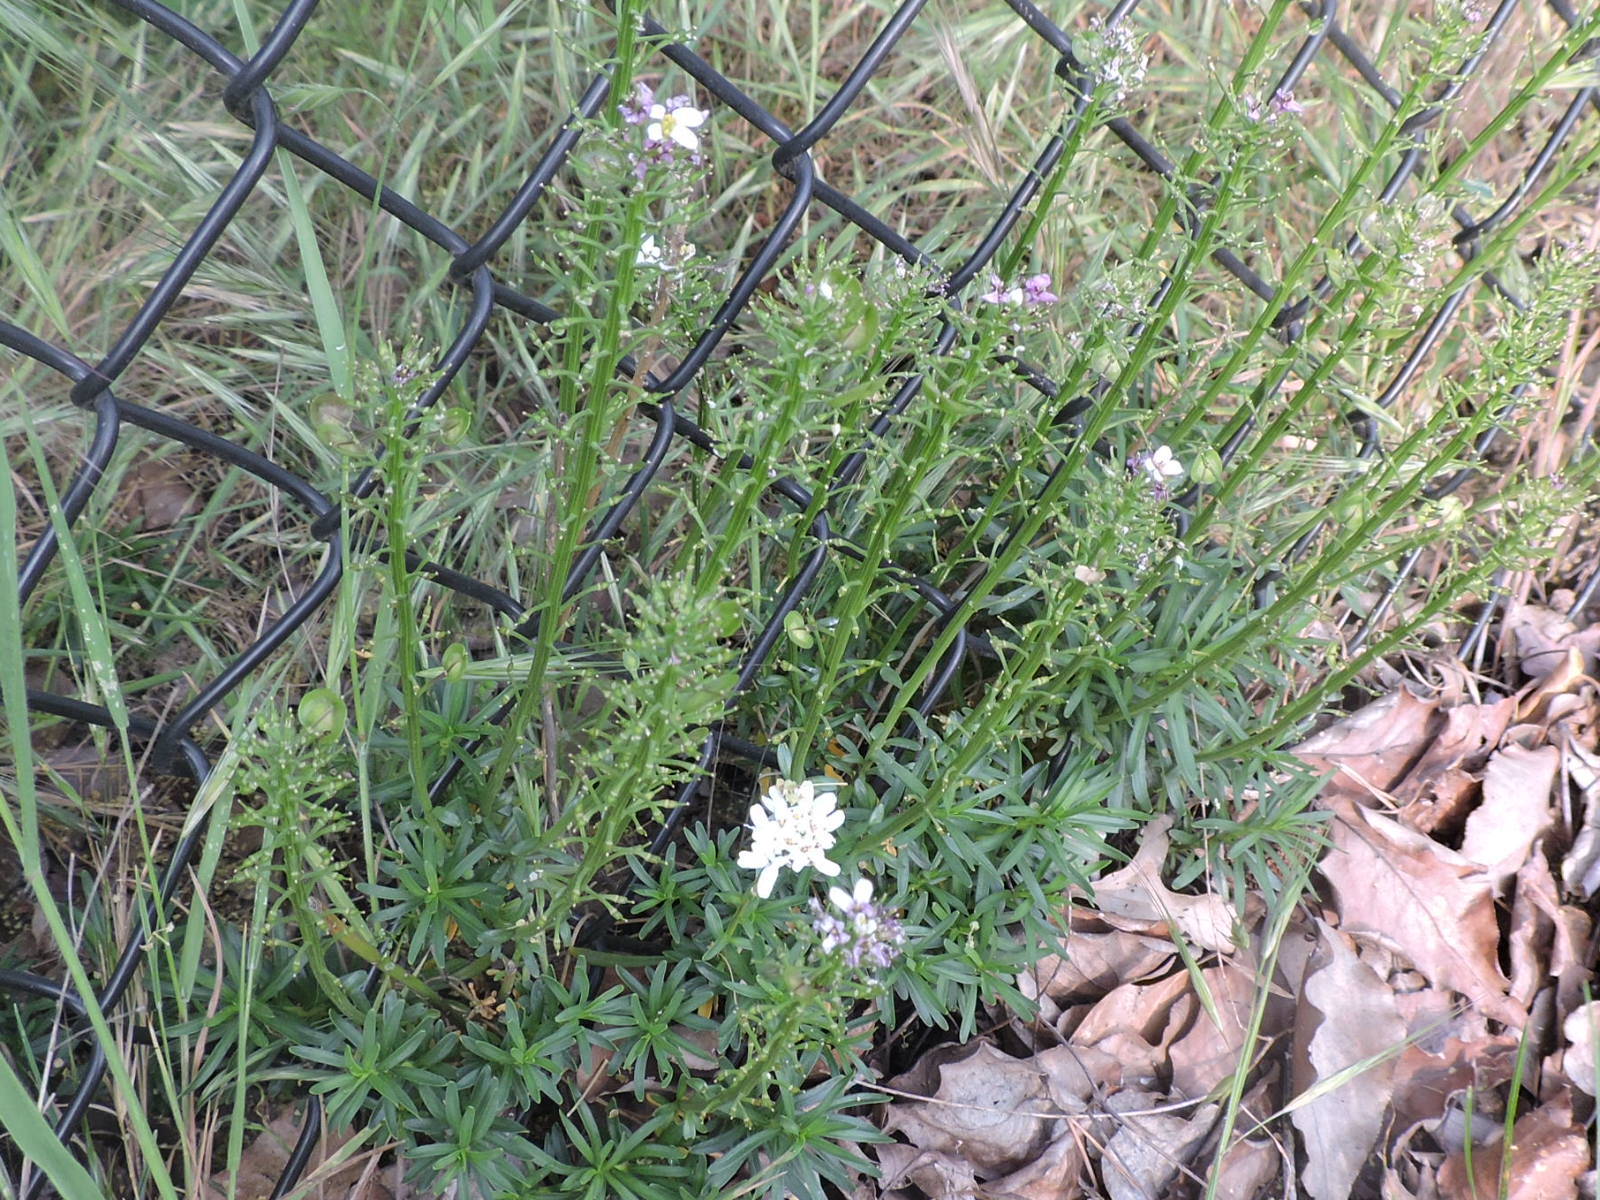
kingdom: Plantae
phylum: Tracheophyta
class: Magnoliopsida
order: Brassicales
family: Brassicaceae
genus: Iberis
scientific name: Iberis sempervirens
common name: Evergreen candytuft
